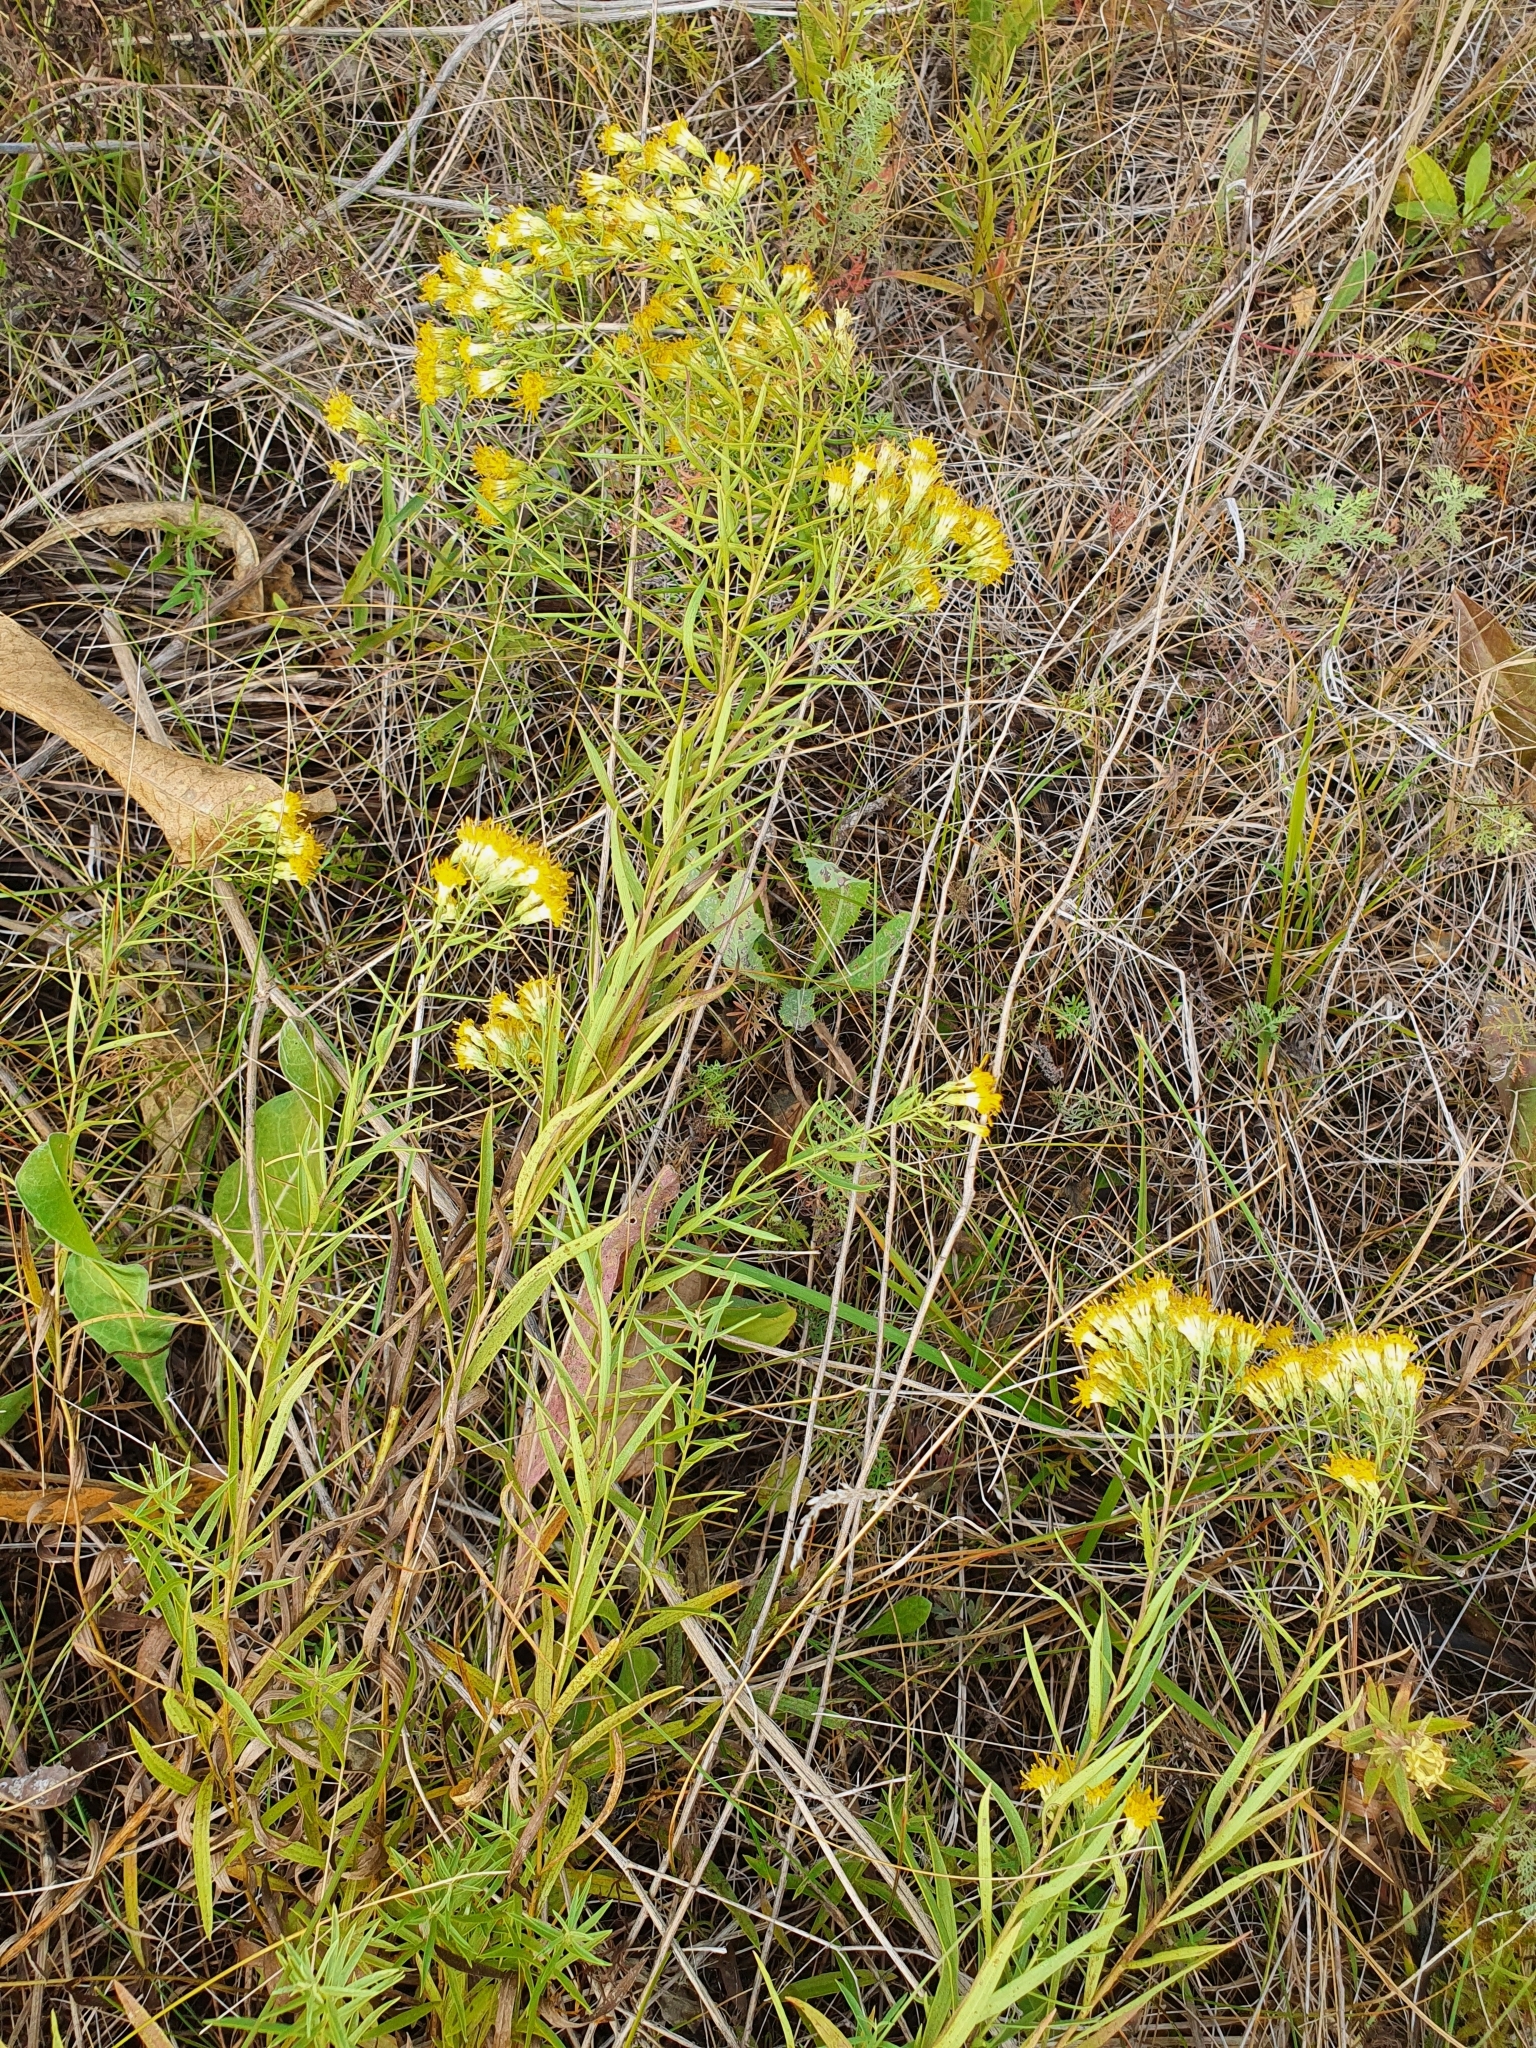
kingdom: Plantae
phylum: Tracheophyta
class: Magnoliopsida
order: Asterales
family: Asteraceae
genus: Galatella
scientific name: Galatella biflora
